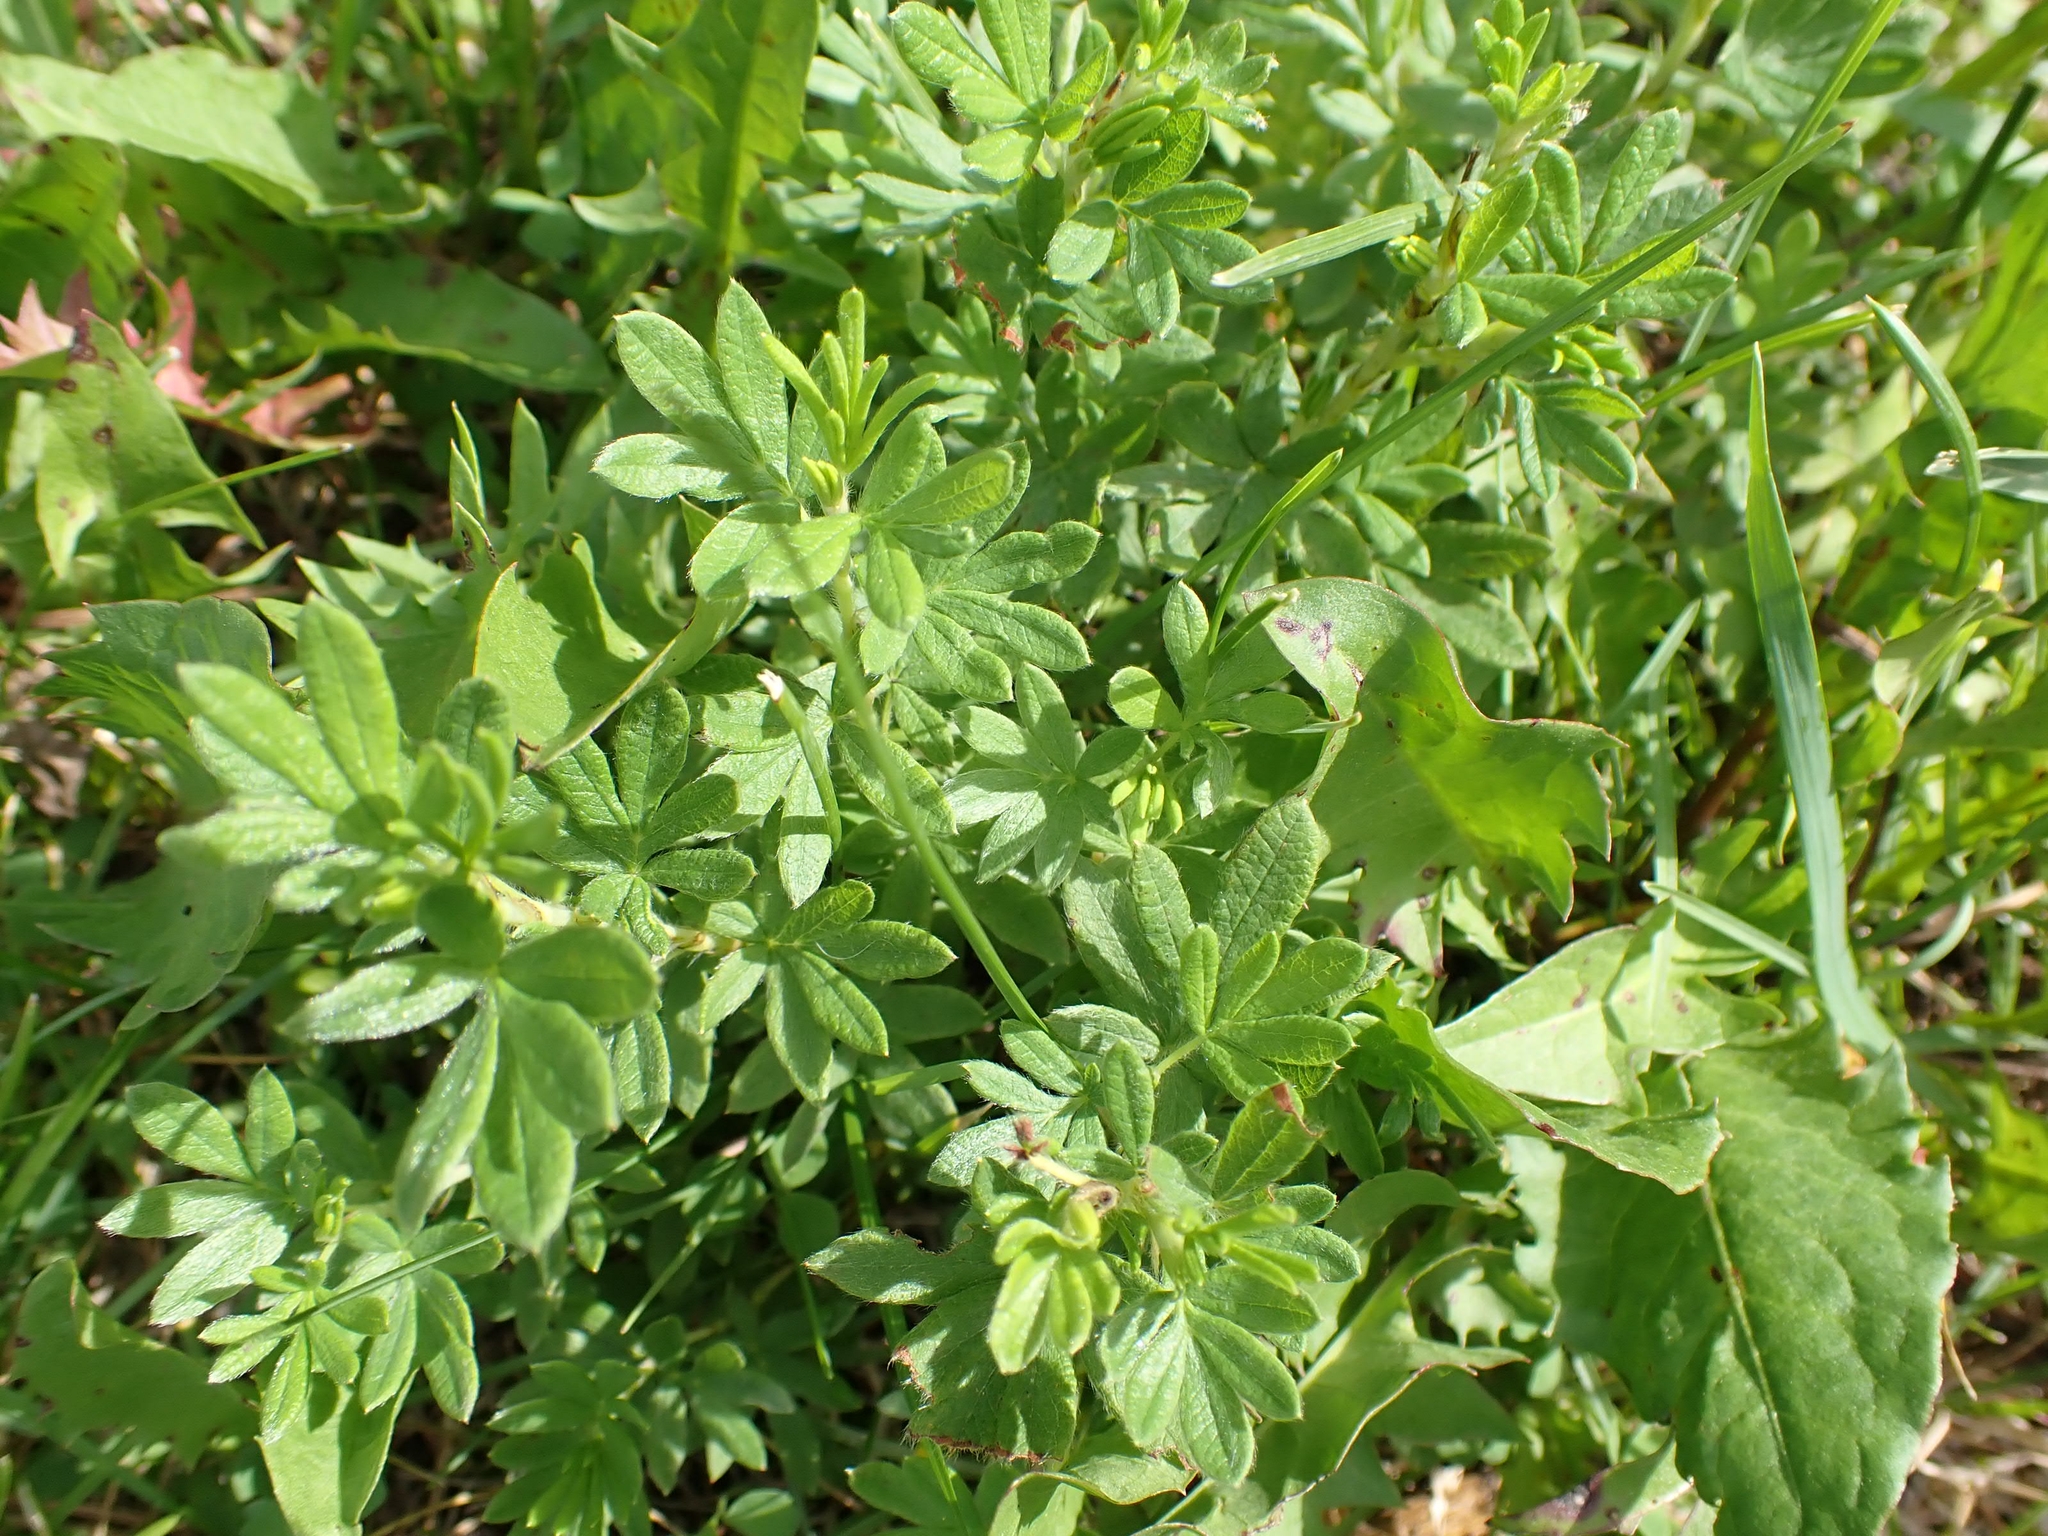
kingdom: Plantae
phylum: Tracheophyta
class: Magnoliopsida
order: Rosales
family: Rosaceae
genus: Dasiphora
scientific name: Dasiphora fruticosa
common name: Shrubby cinquefoil
